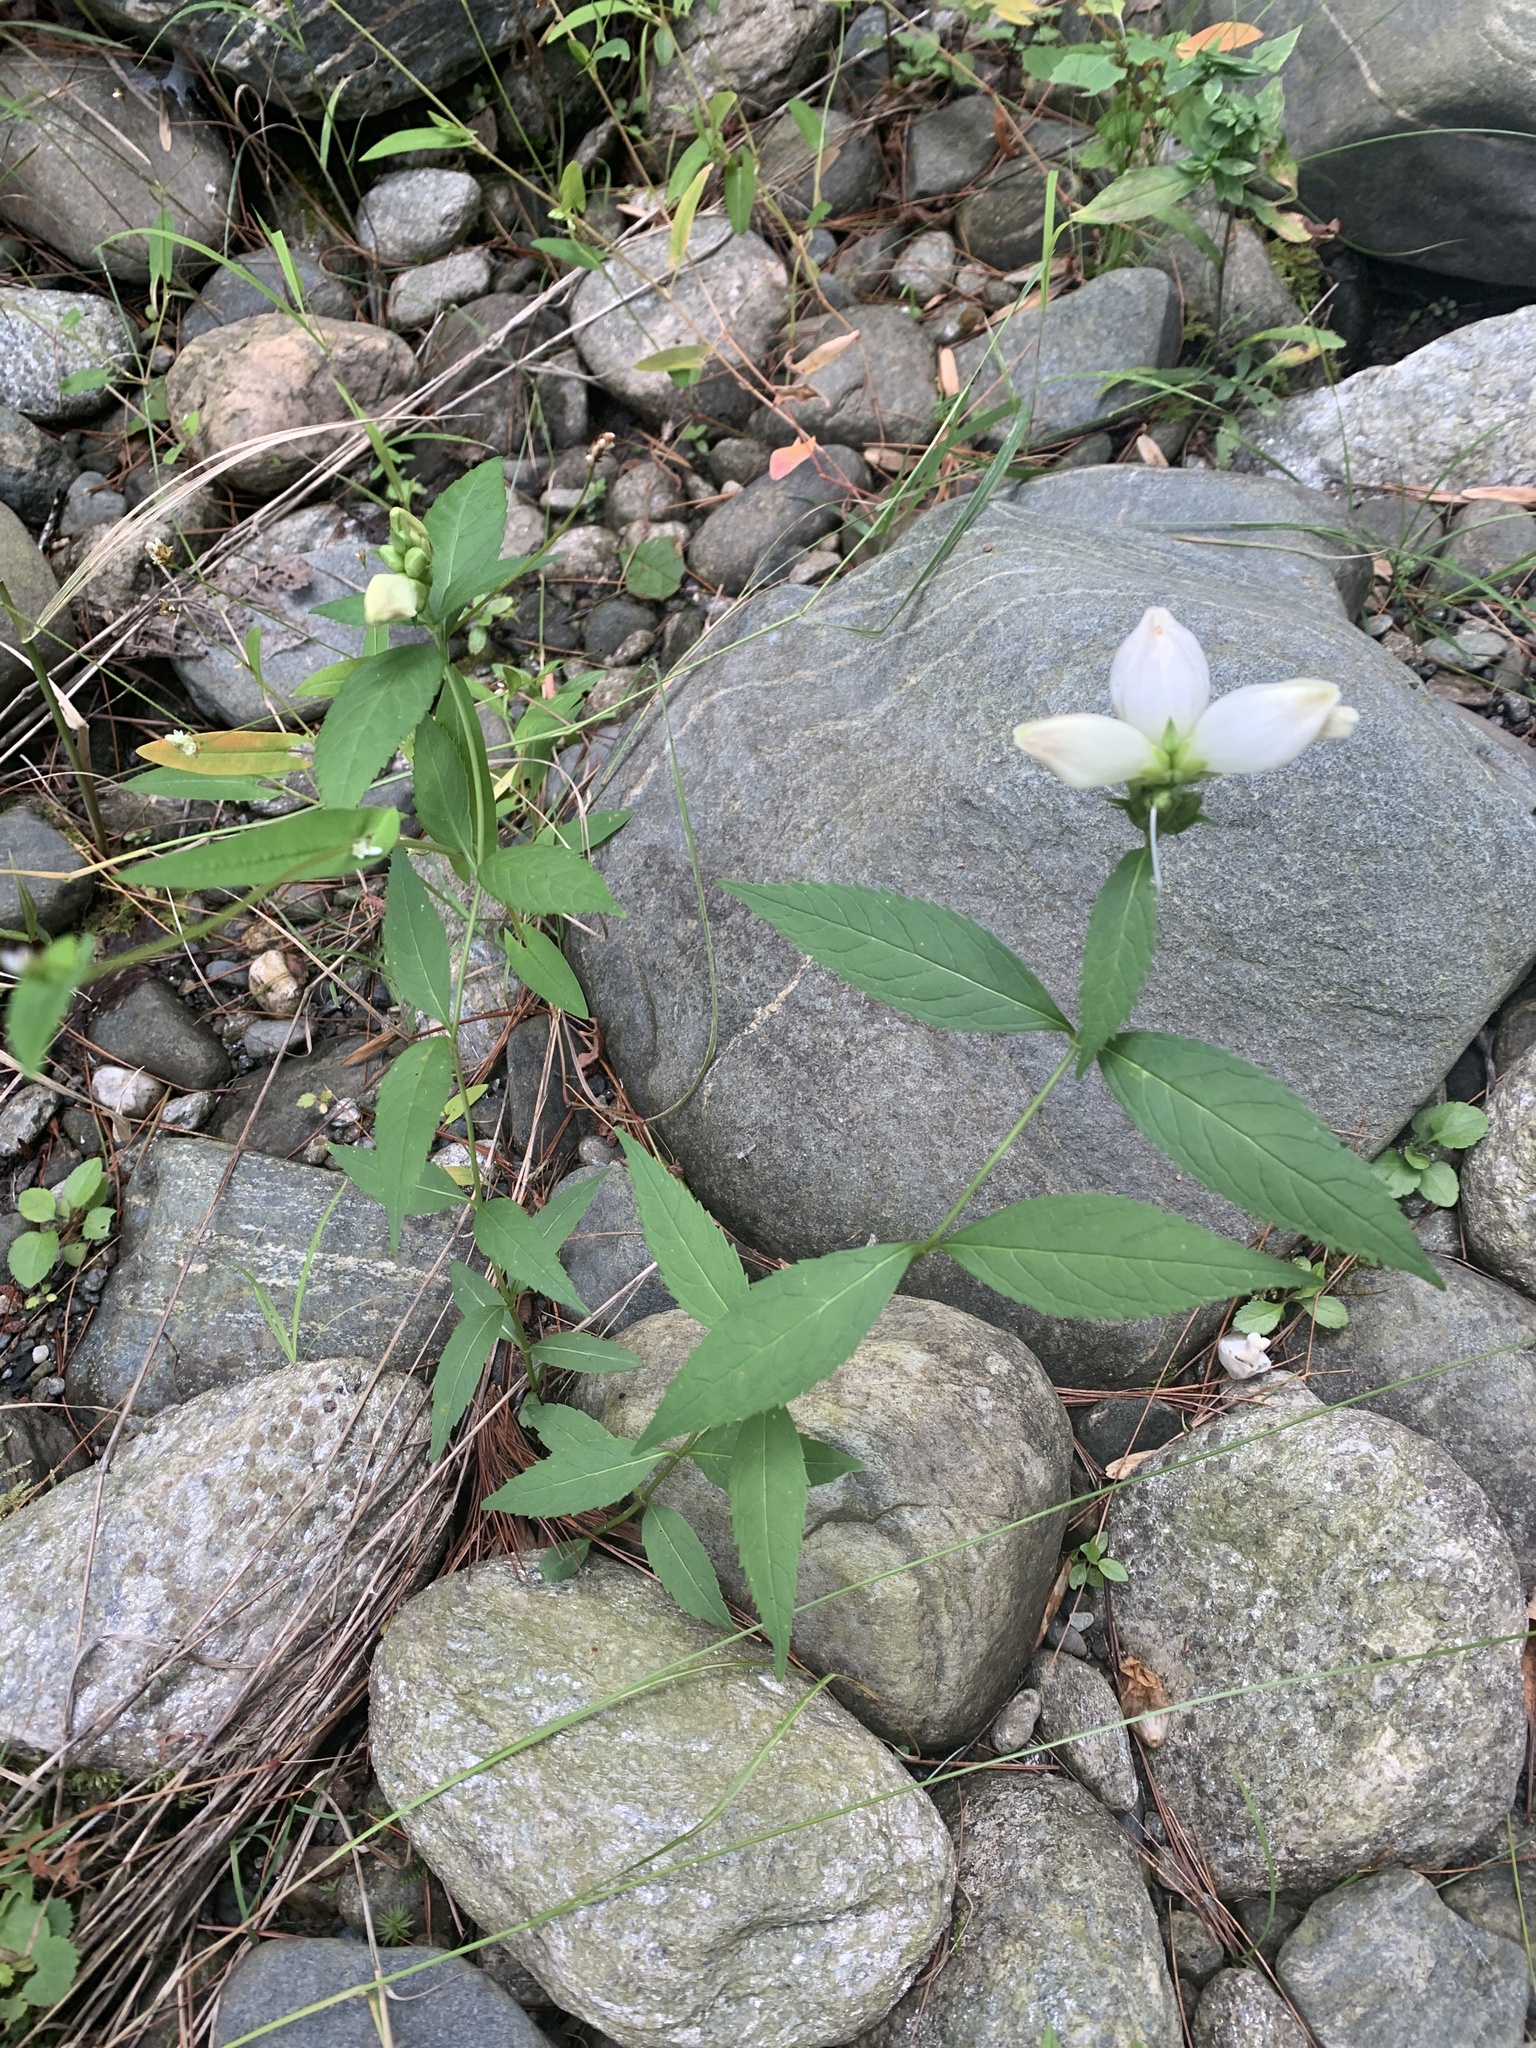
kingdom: Plantae
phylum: Tracheophyta
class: Magnoliopsida
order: Lamiales
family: Plantaginaceae
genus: Chelone
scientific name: Chelone glabra
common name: Snakehead
